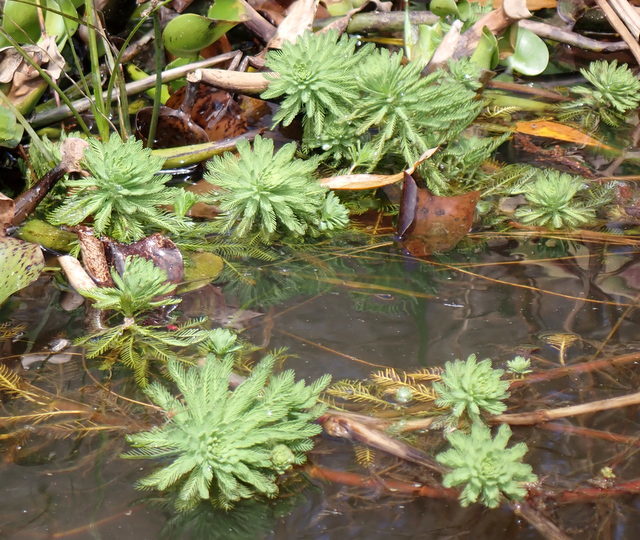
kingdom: Plantae
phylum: Tracheophyta
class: Magnoliopsida
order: Saxifragales
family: Haloragaceae
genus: Myriophyllum
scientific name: Myriophyllum aquaticum
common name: Parrot's feather
